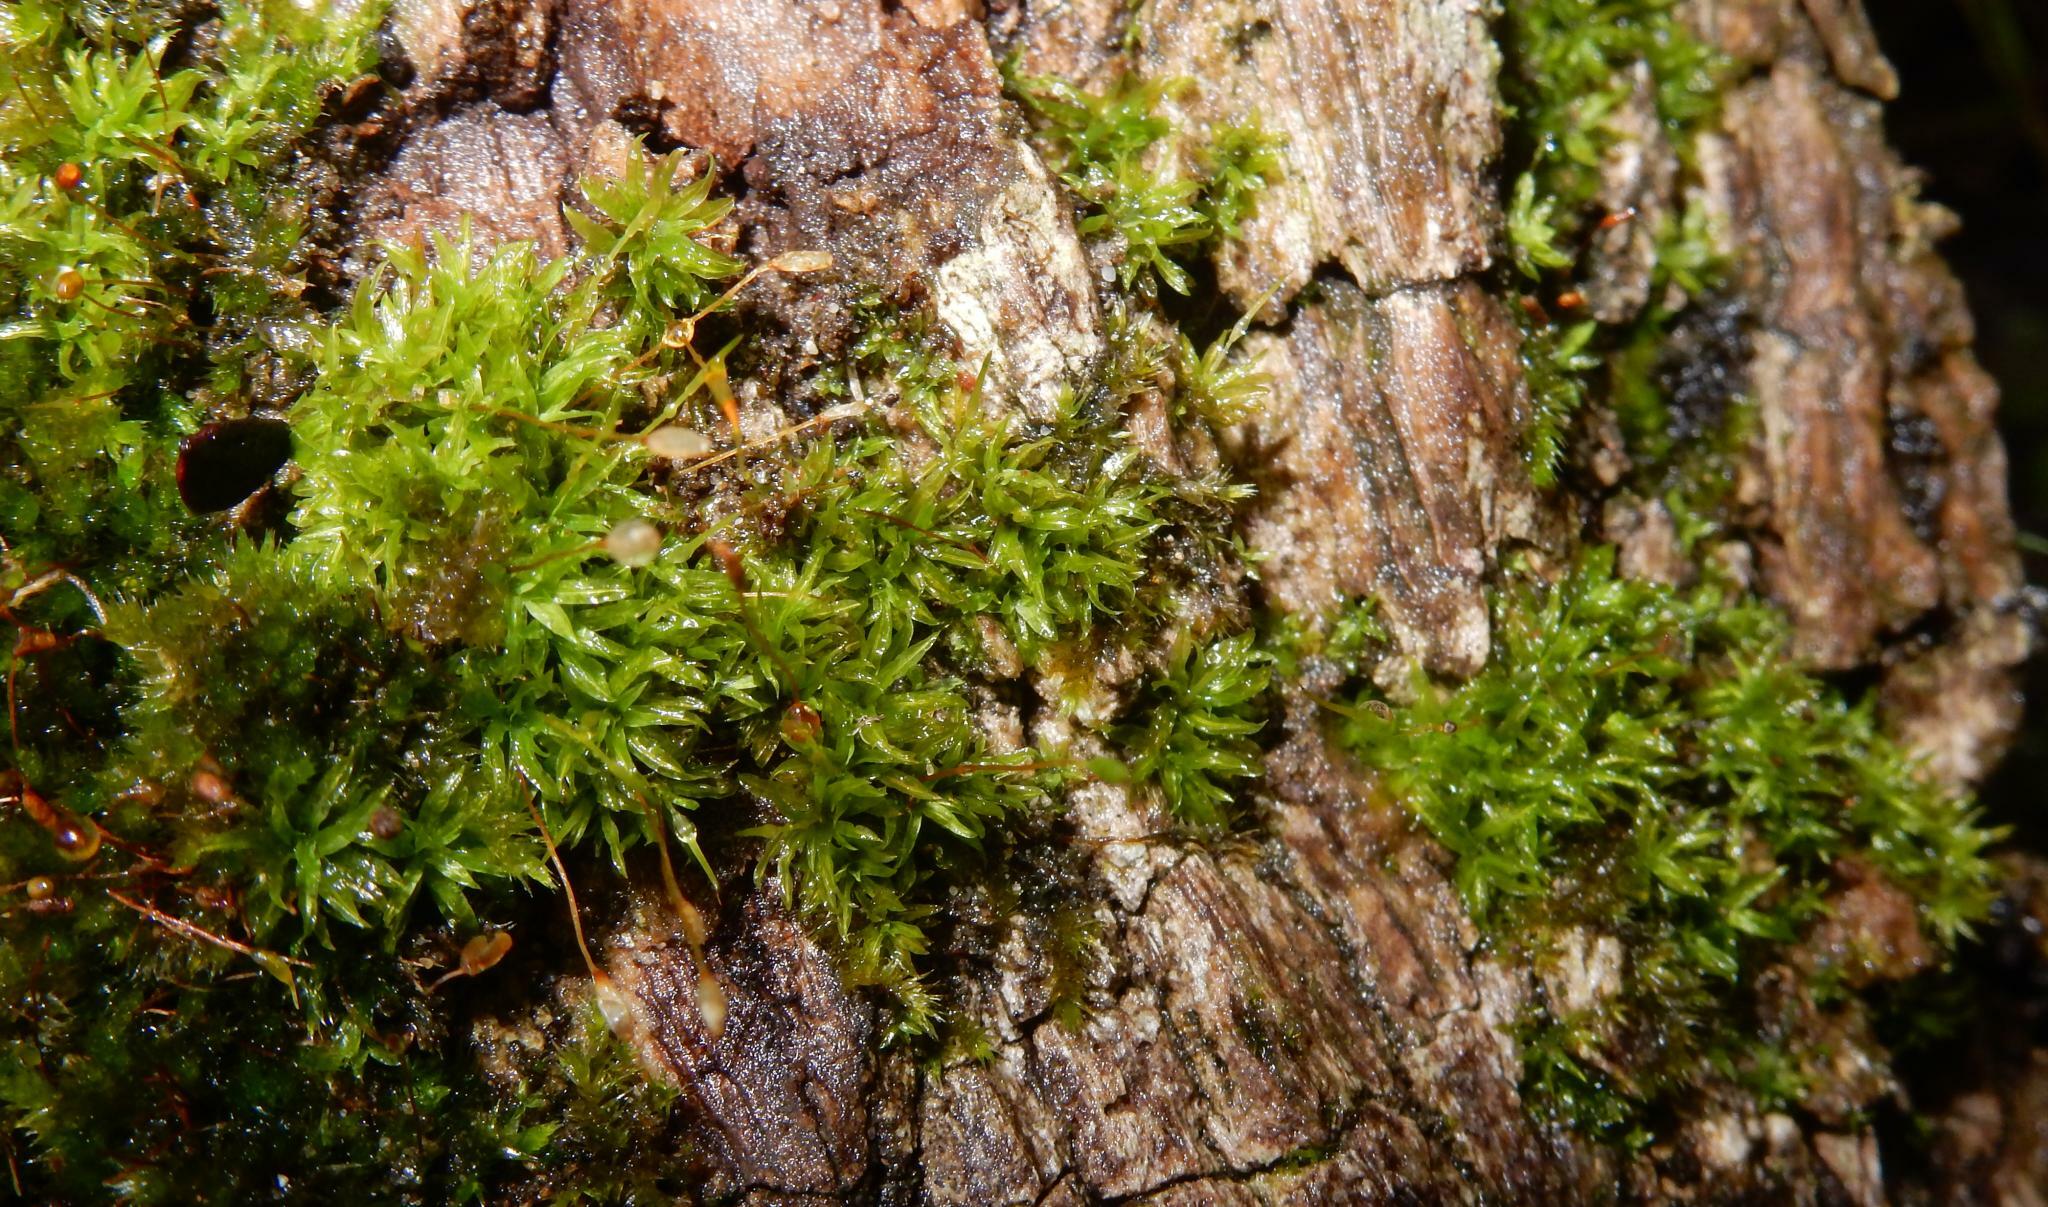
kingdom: Plantae
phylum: Bryophyta
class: Bryopsida
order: Pottiales
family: Pottiaceae
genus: Tortella
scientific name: Tortella humilis
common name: Small twisted moss
